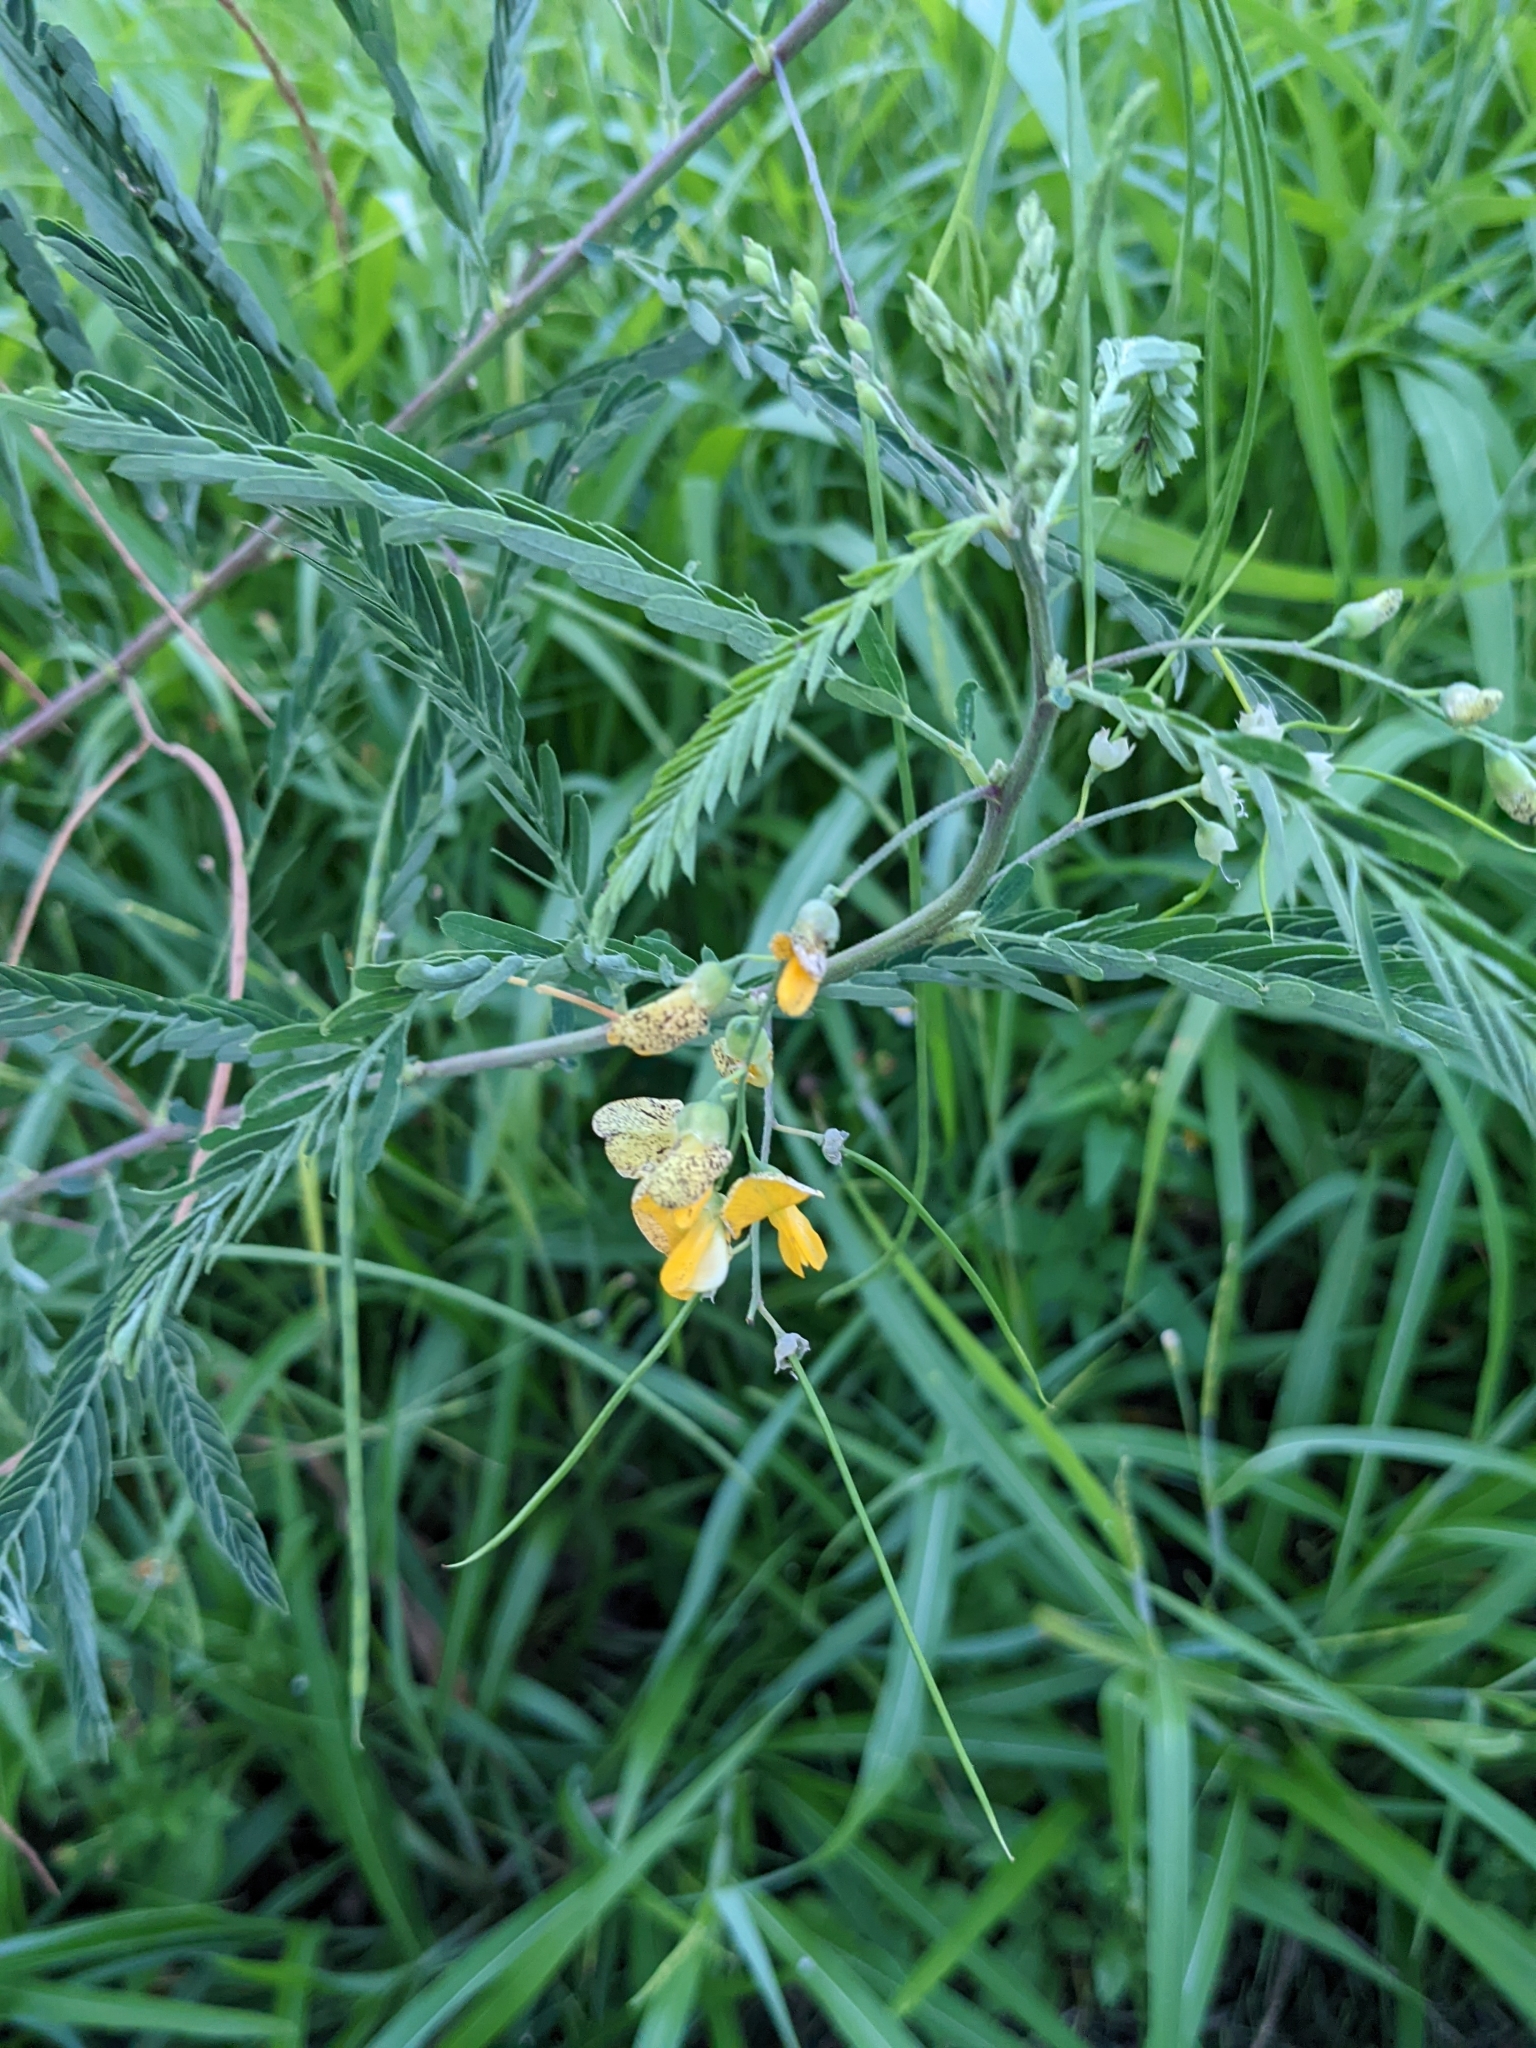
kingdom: Plantae
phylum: Tracheophyta
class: Magnoliopsida
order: Fabales
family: Fabaceae
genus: Sesbania
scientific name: Sesbania cannabina
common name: Canicha
